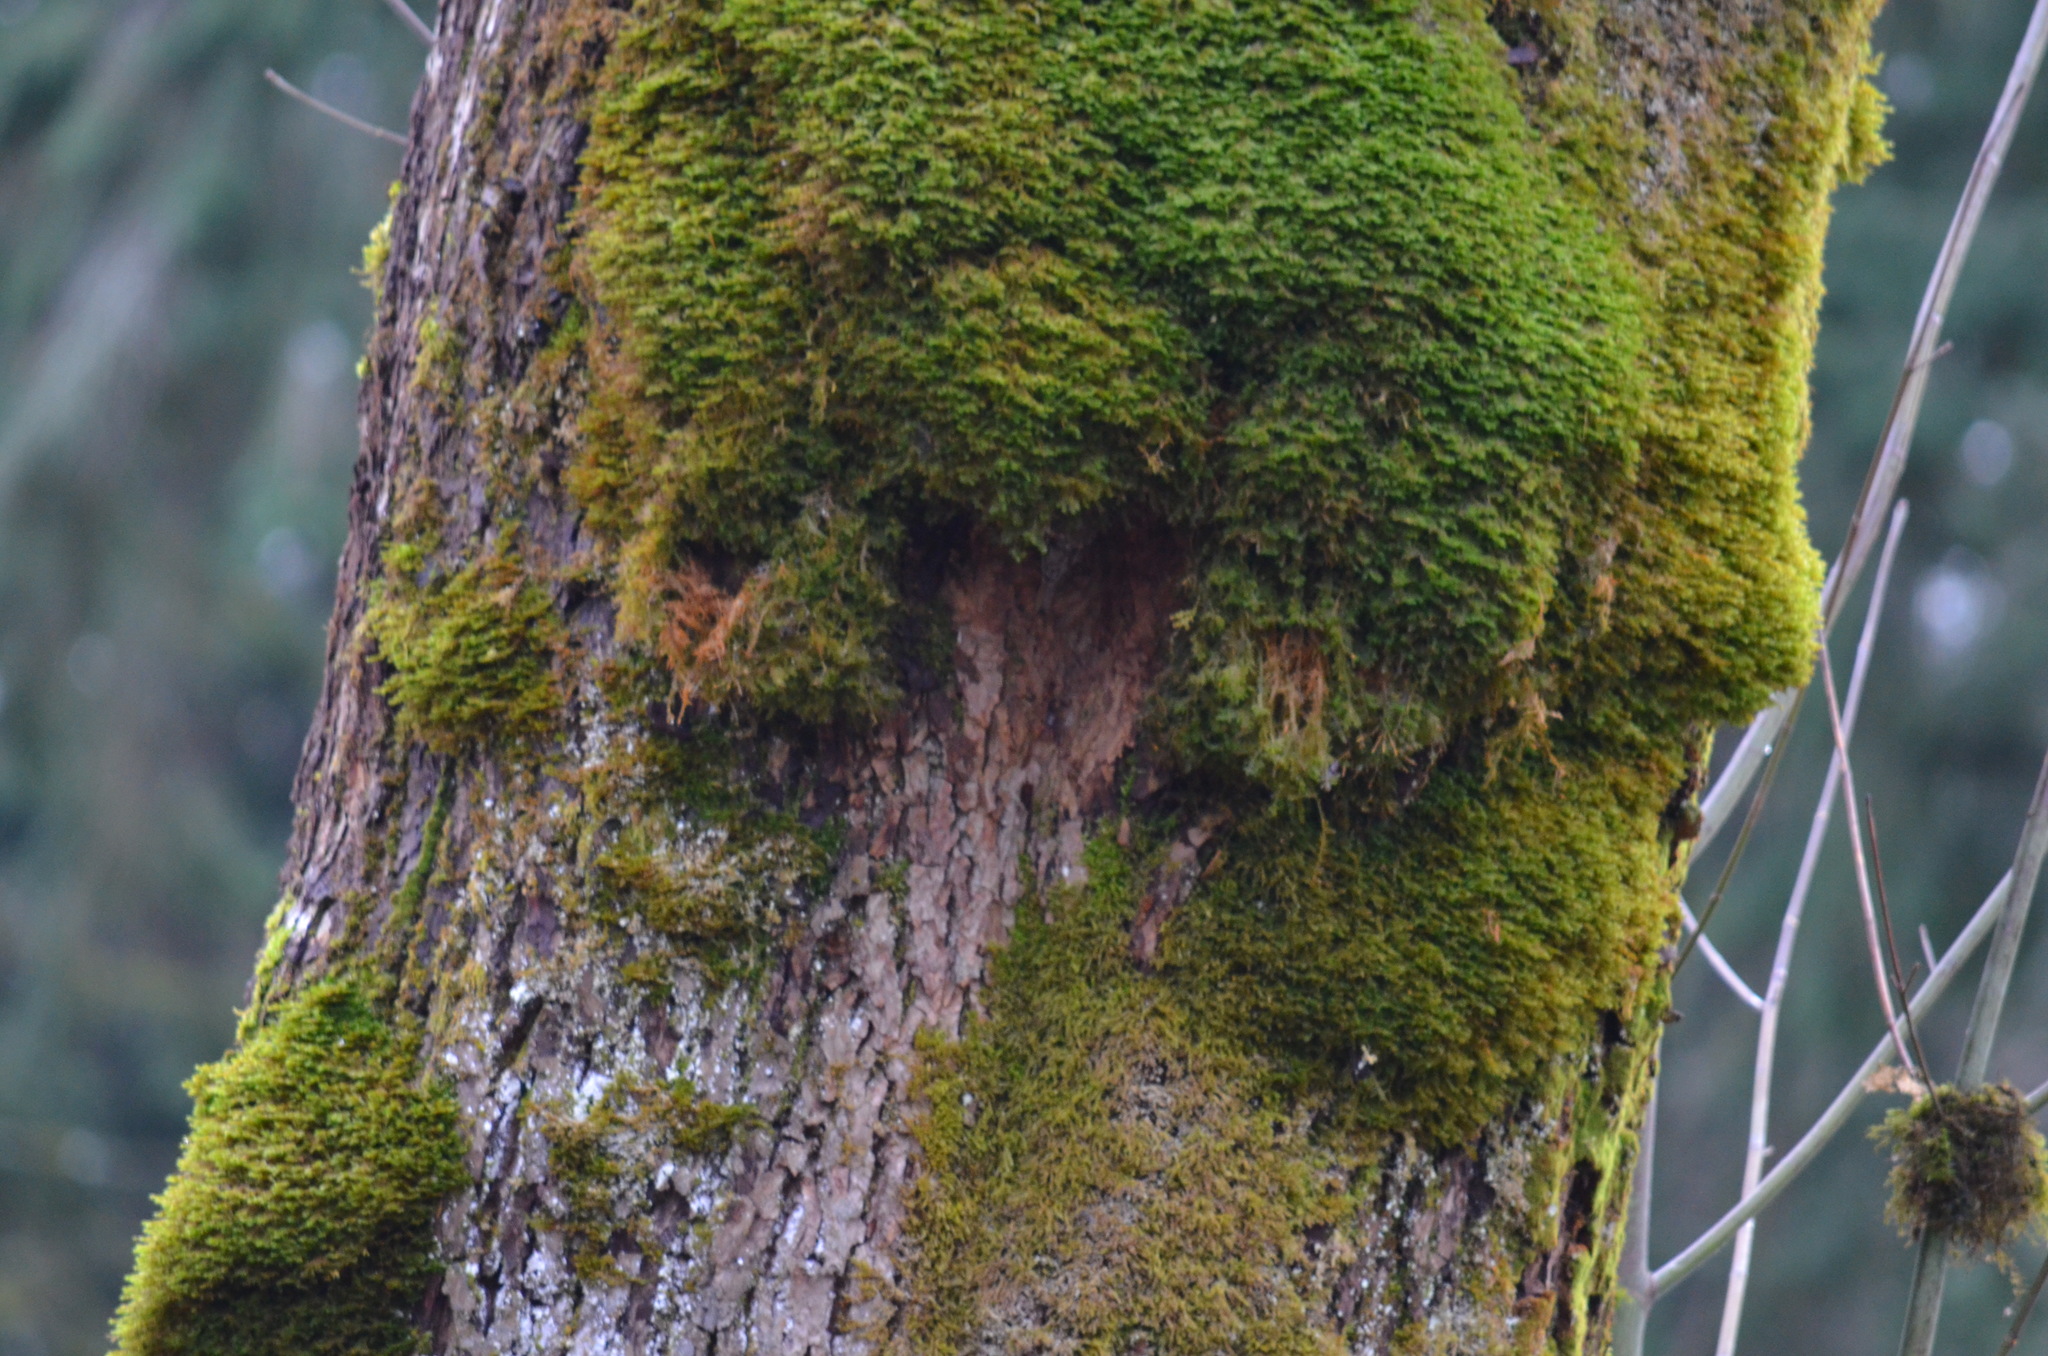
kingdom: Plantae
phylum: Tracheophyta
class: Magnoliopsida
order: Sapindales
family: Sapindaceae
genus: Acer
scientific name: Acer macrophyllum
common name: Oregon maple
